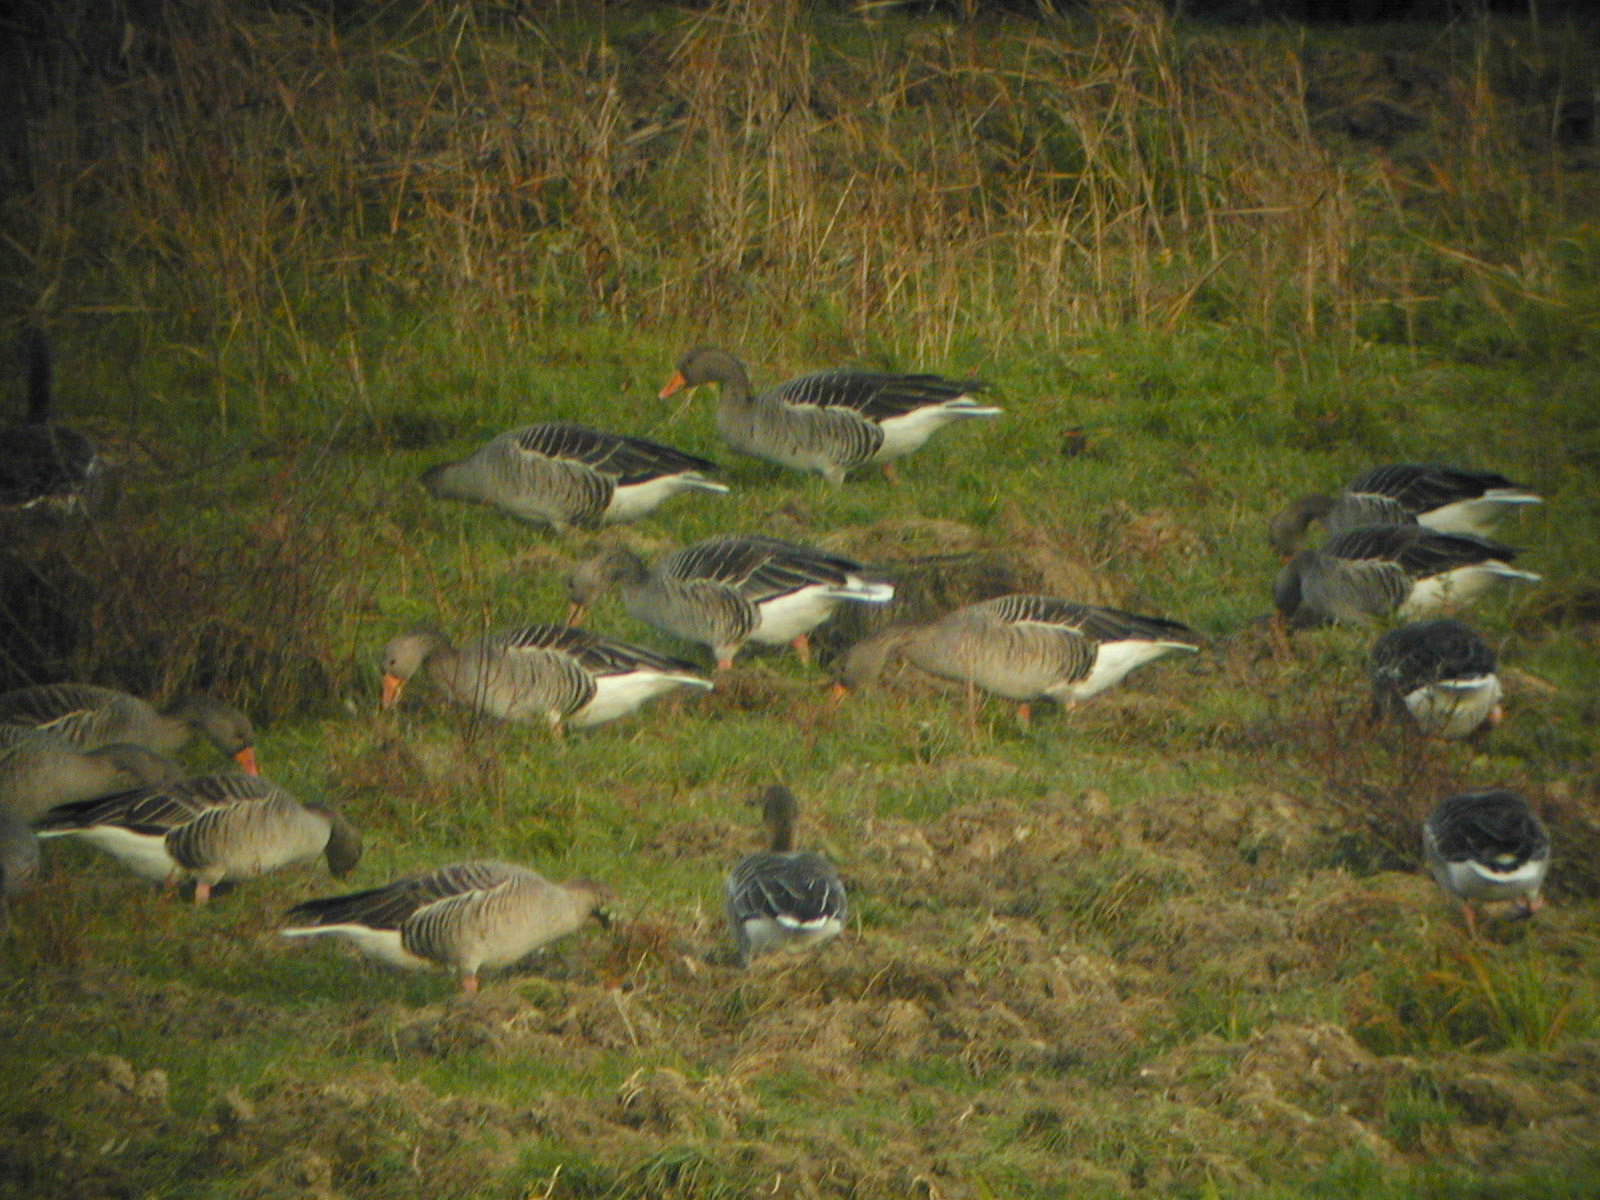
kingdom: Animalia
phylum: Chordata
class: Aves
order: Anseriformes
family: Anatidae
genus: Anser
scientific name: Anser anser
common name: Greylag goose
